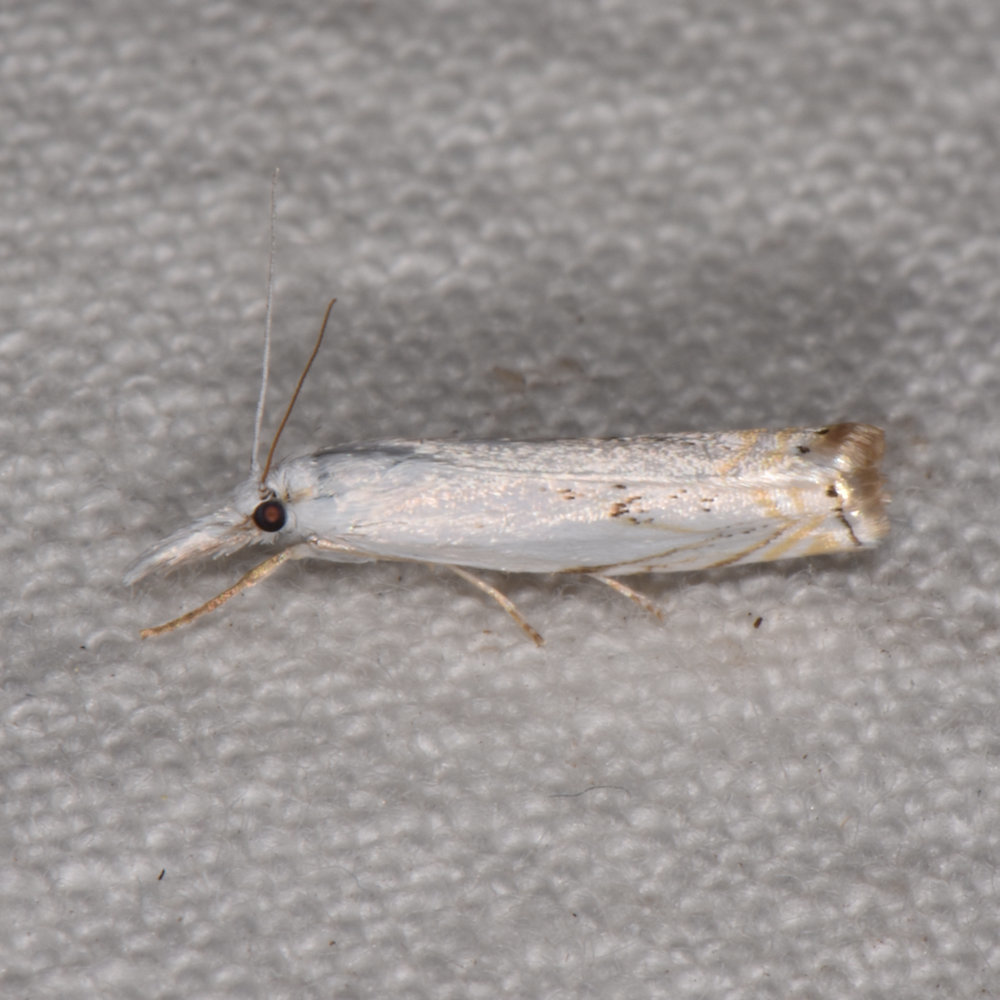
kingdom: Animalia
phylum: Arthropoda
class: Insecta
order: Lepidoptera
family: Crambidae
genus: Crambus
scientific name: Crambus albellus
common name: Small white grass-veneer
